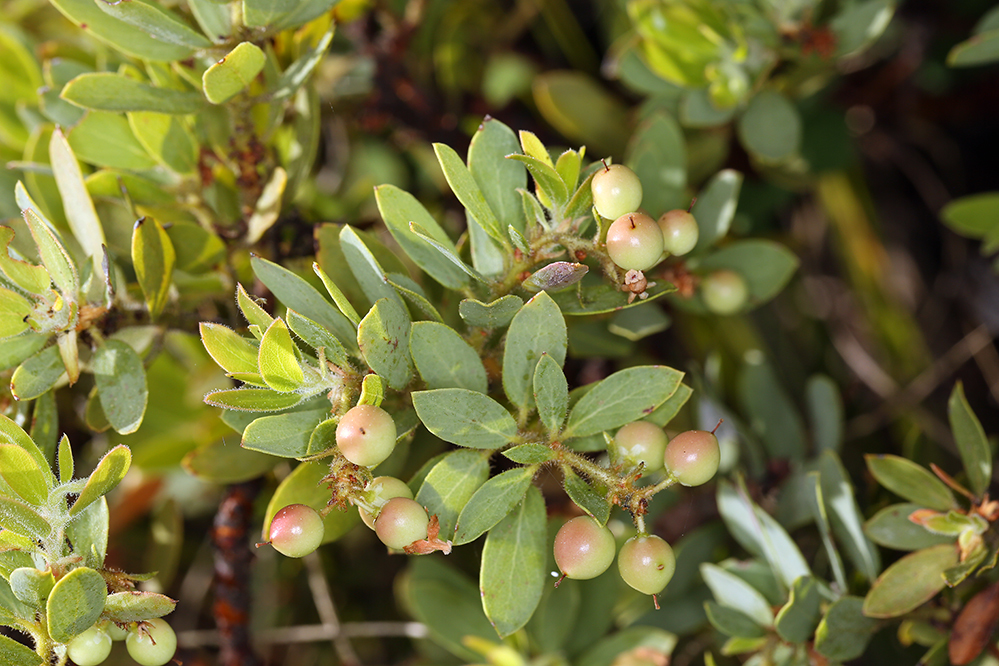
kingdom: Plantae
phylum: Tracheophyta
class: Magnoliopsida
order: Ericales
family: Ericaceae
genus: Arctostaphylos
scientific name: Arctostaphylos klamathensis
